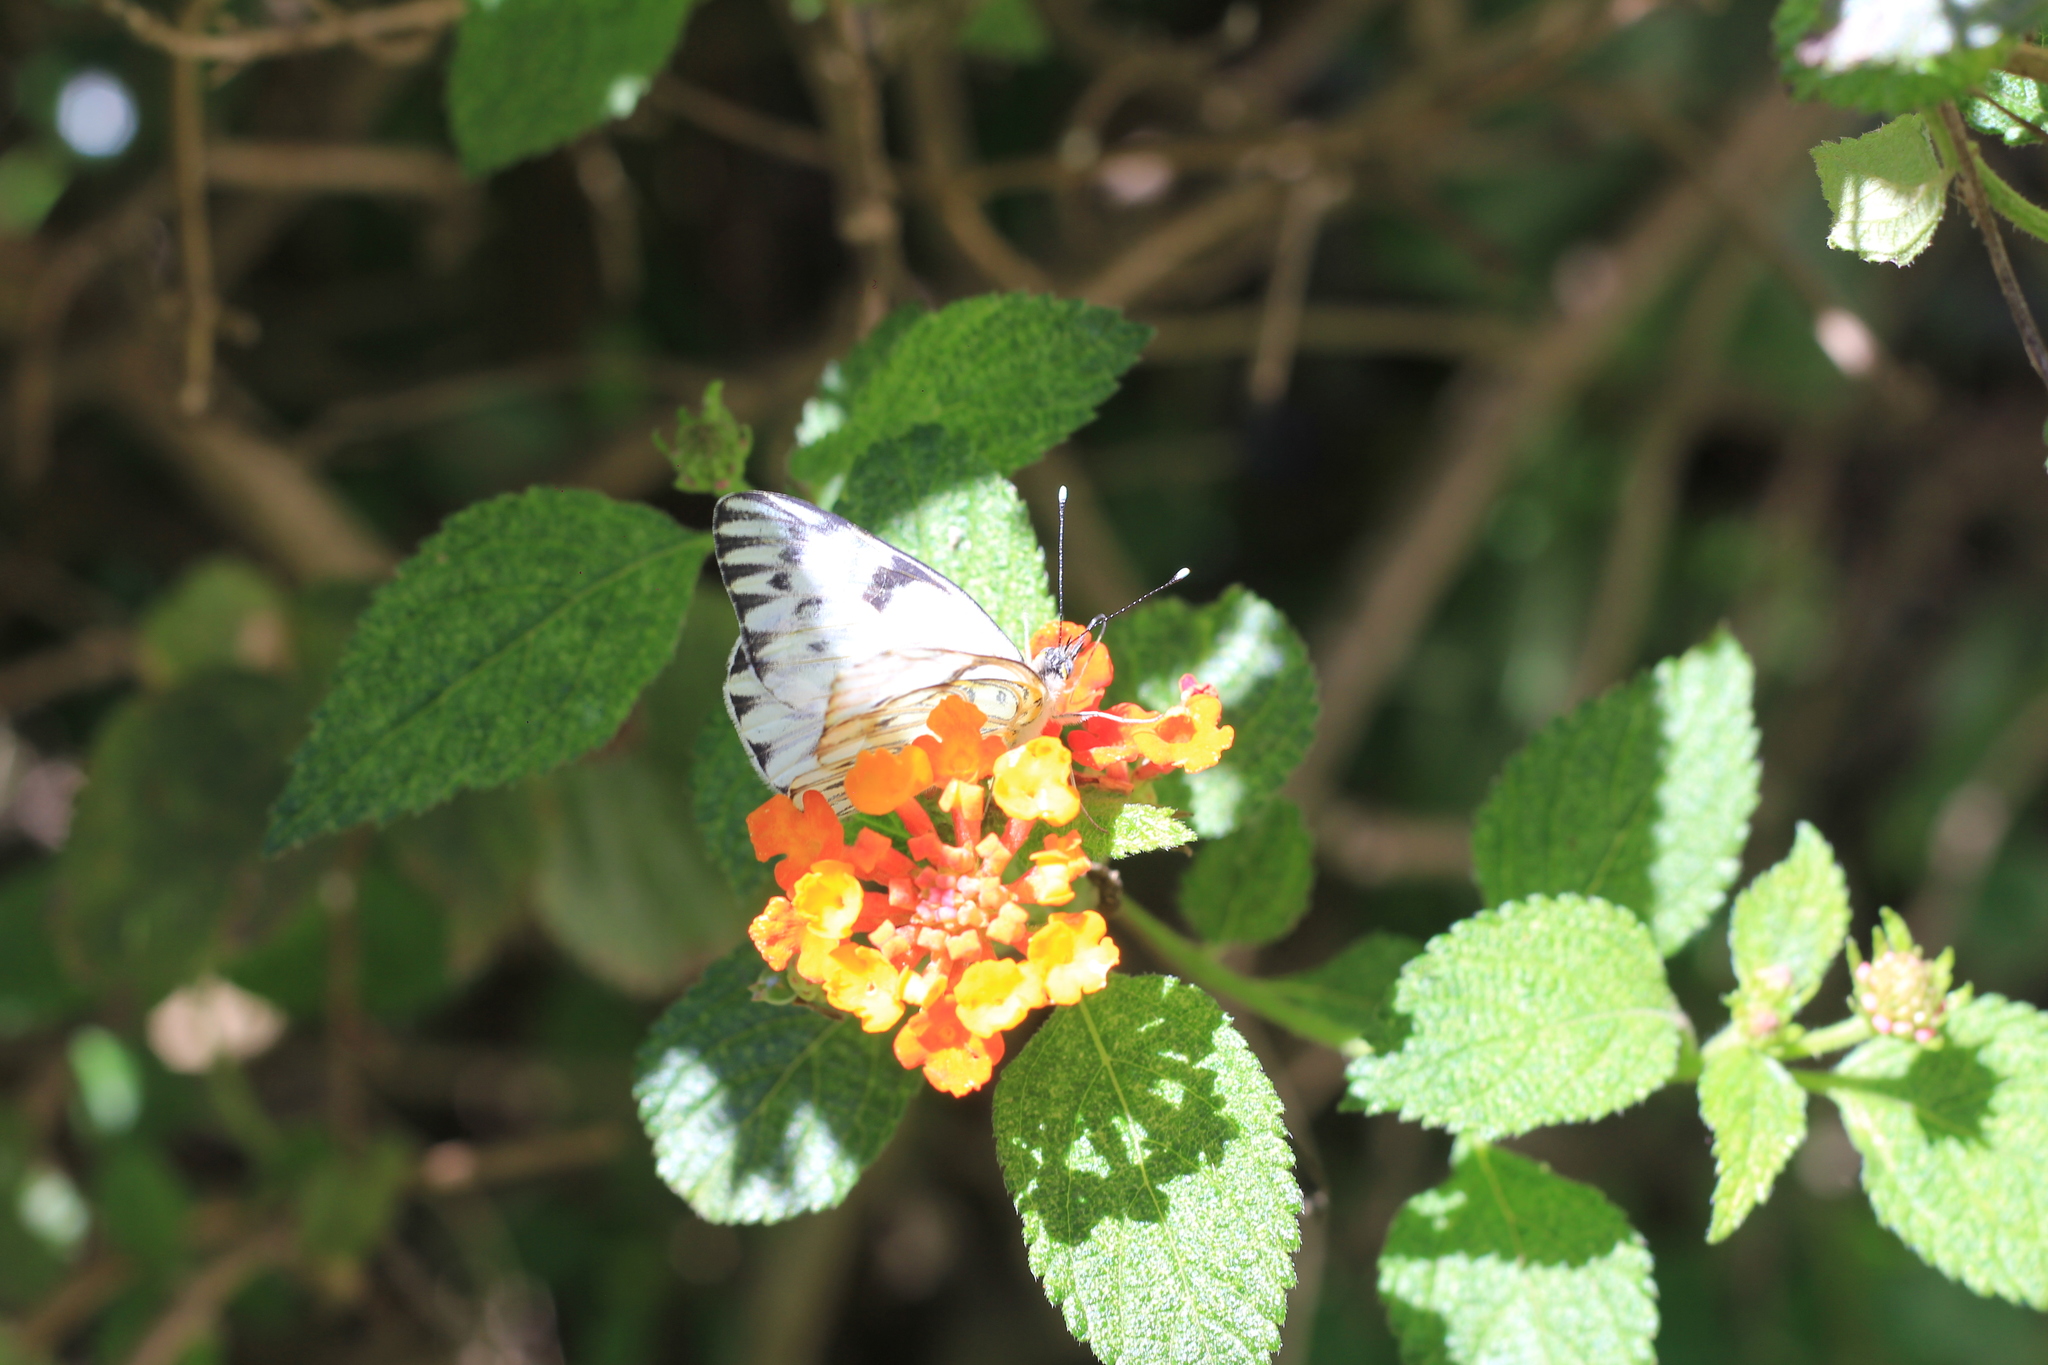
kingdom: Animalia
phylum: Arthropoda
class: Insecta
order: Lepidoptera
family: Pieridae
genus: Tatochila
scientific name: Tatochila autodice
